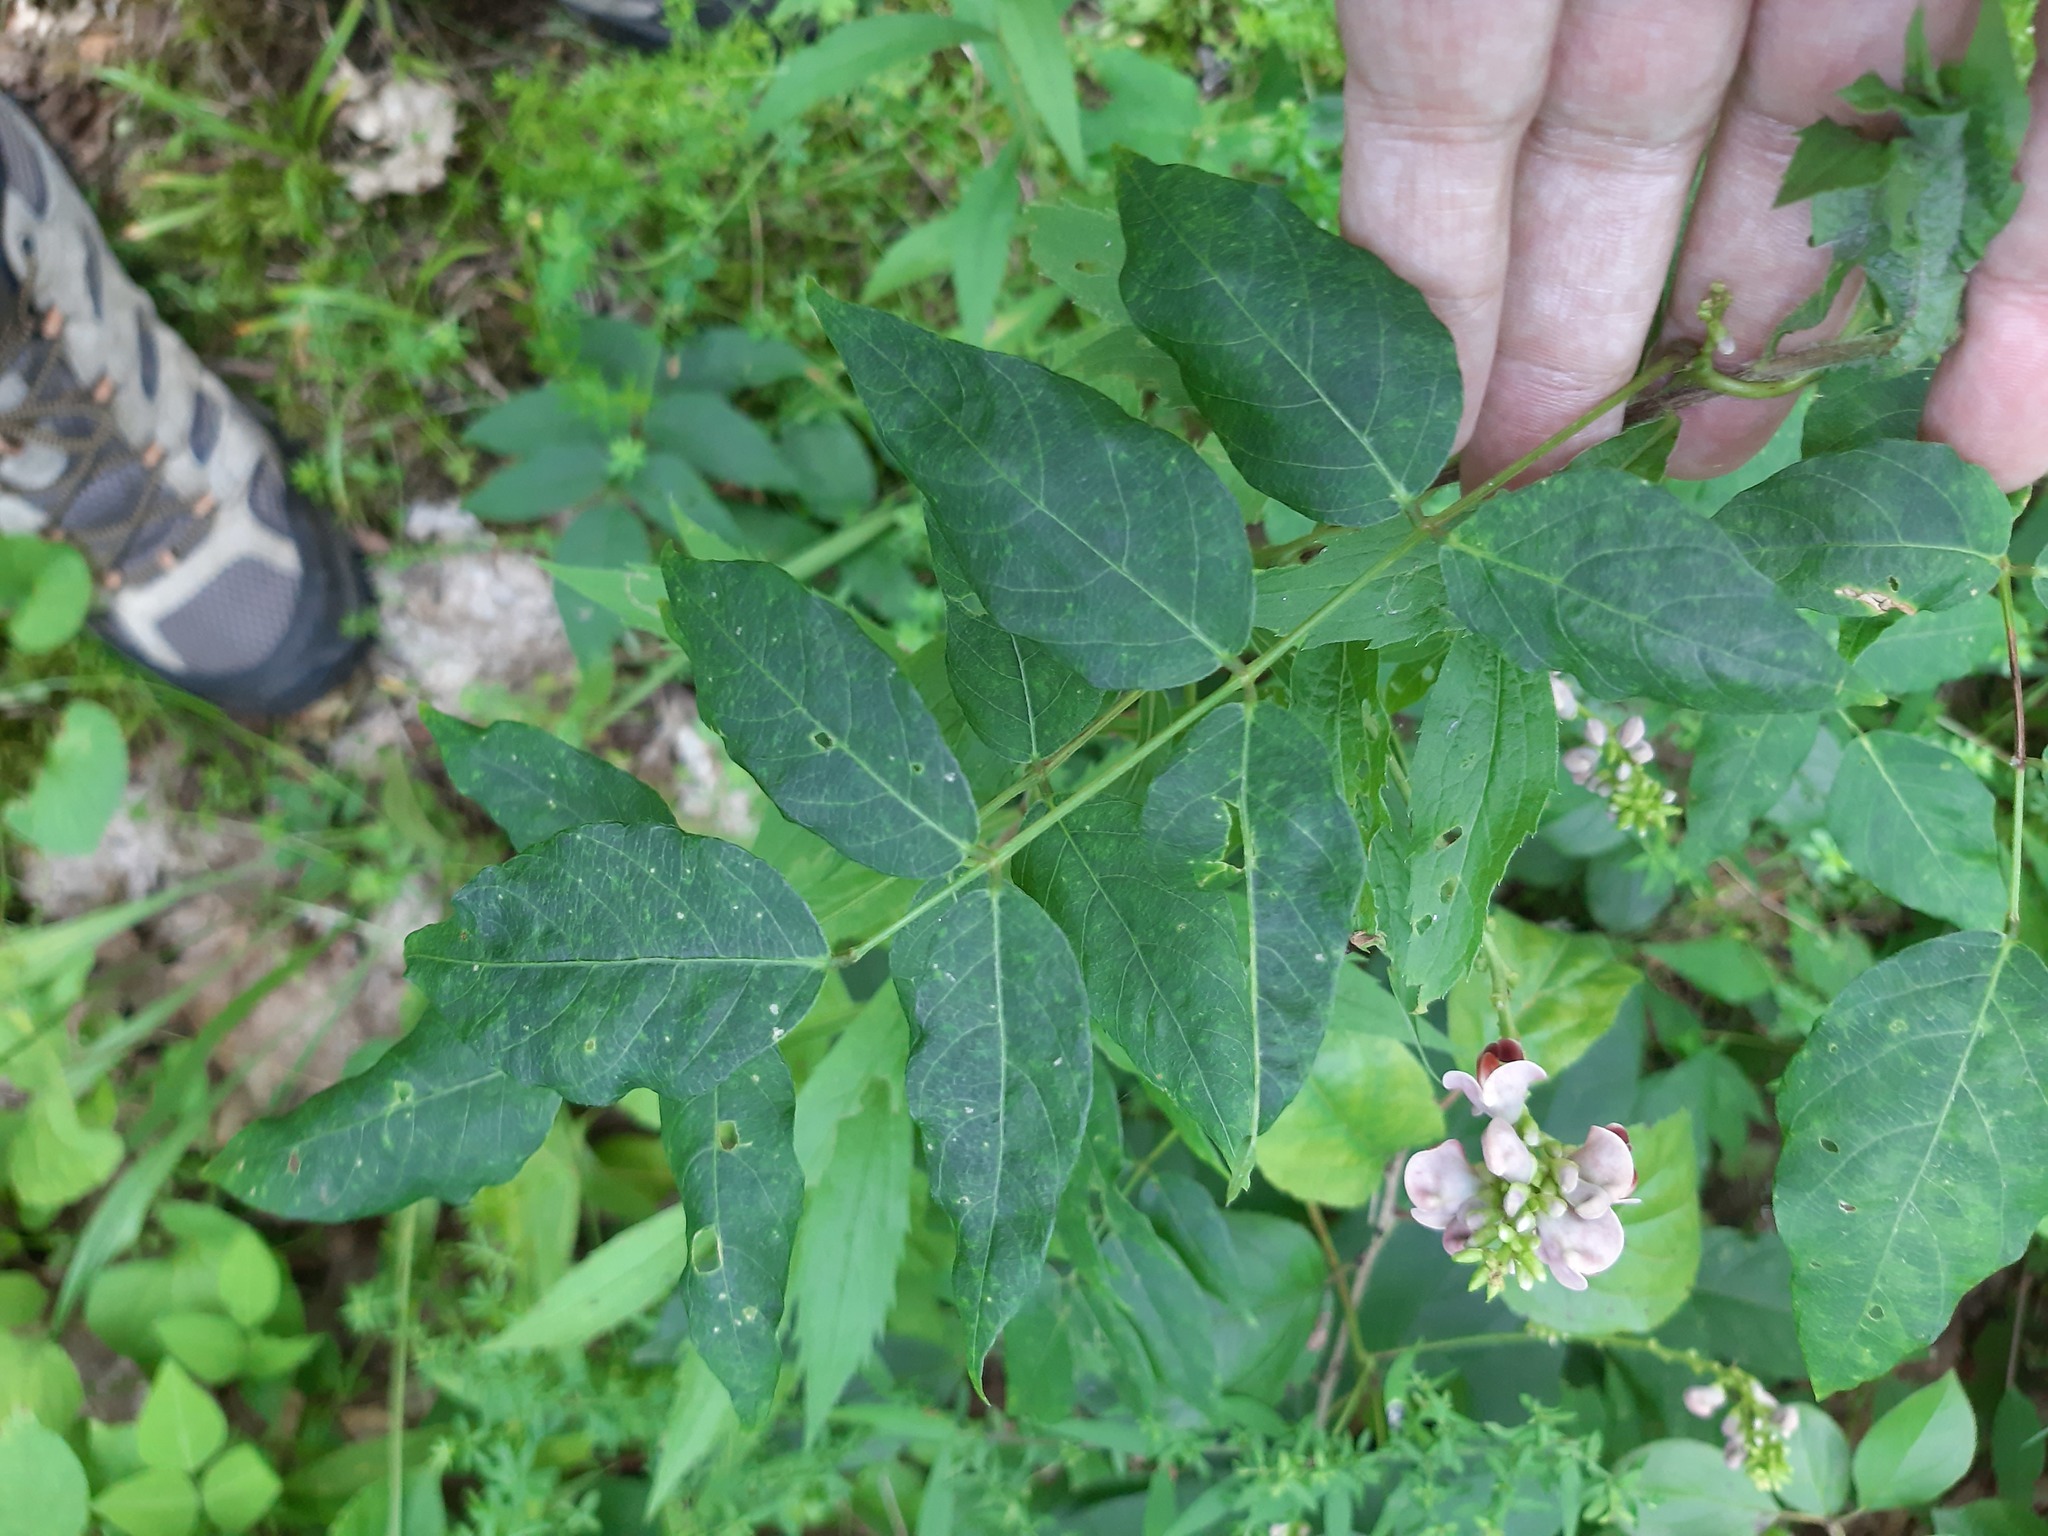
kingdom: Plantae
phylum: Tracheophyta
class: Magnoliopsida
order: Fabales
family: Fabaceae
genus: Apios
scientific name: Apios americana
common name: American potato-bean
